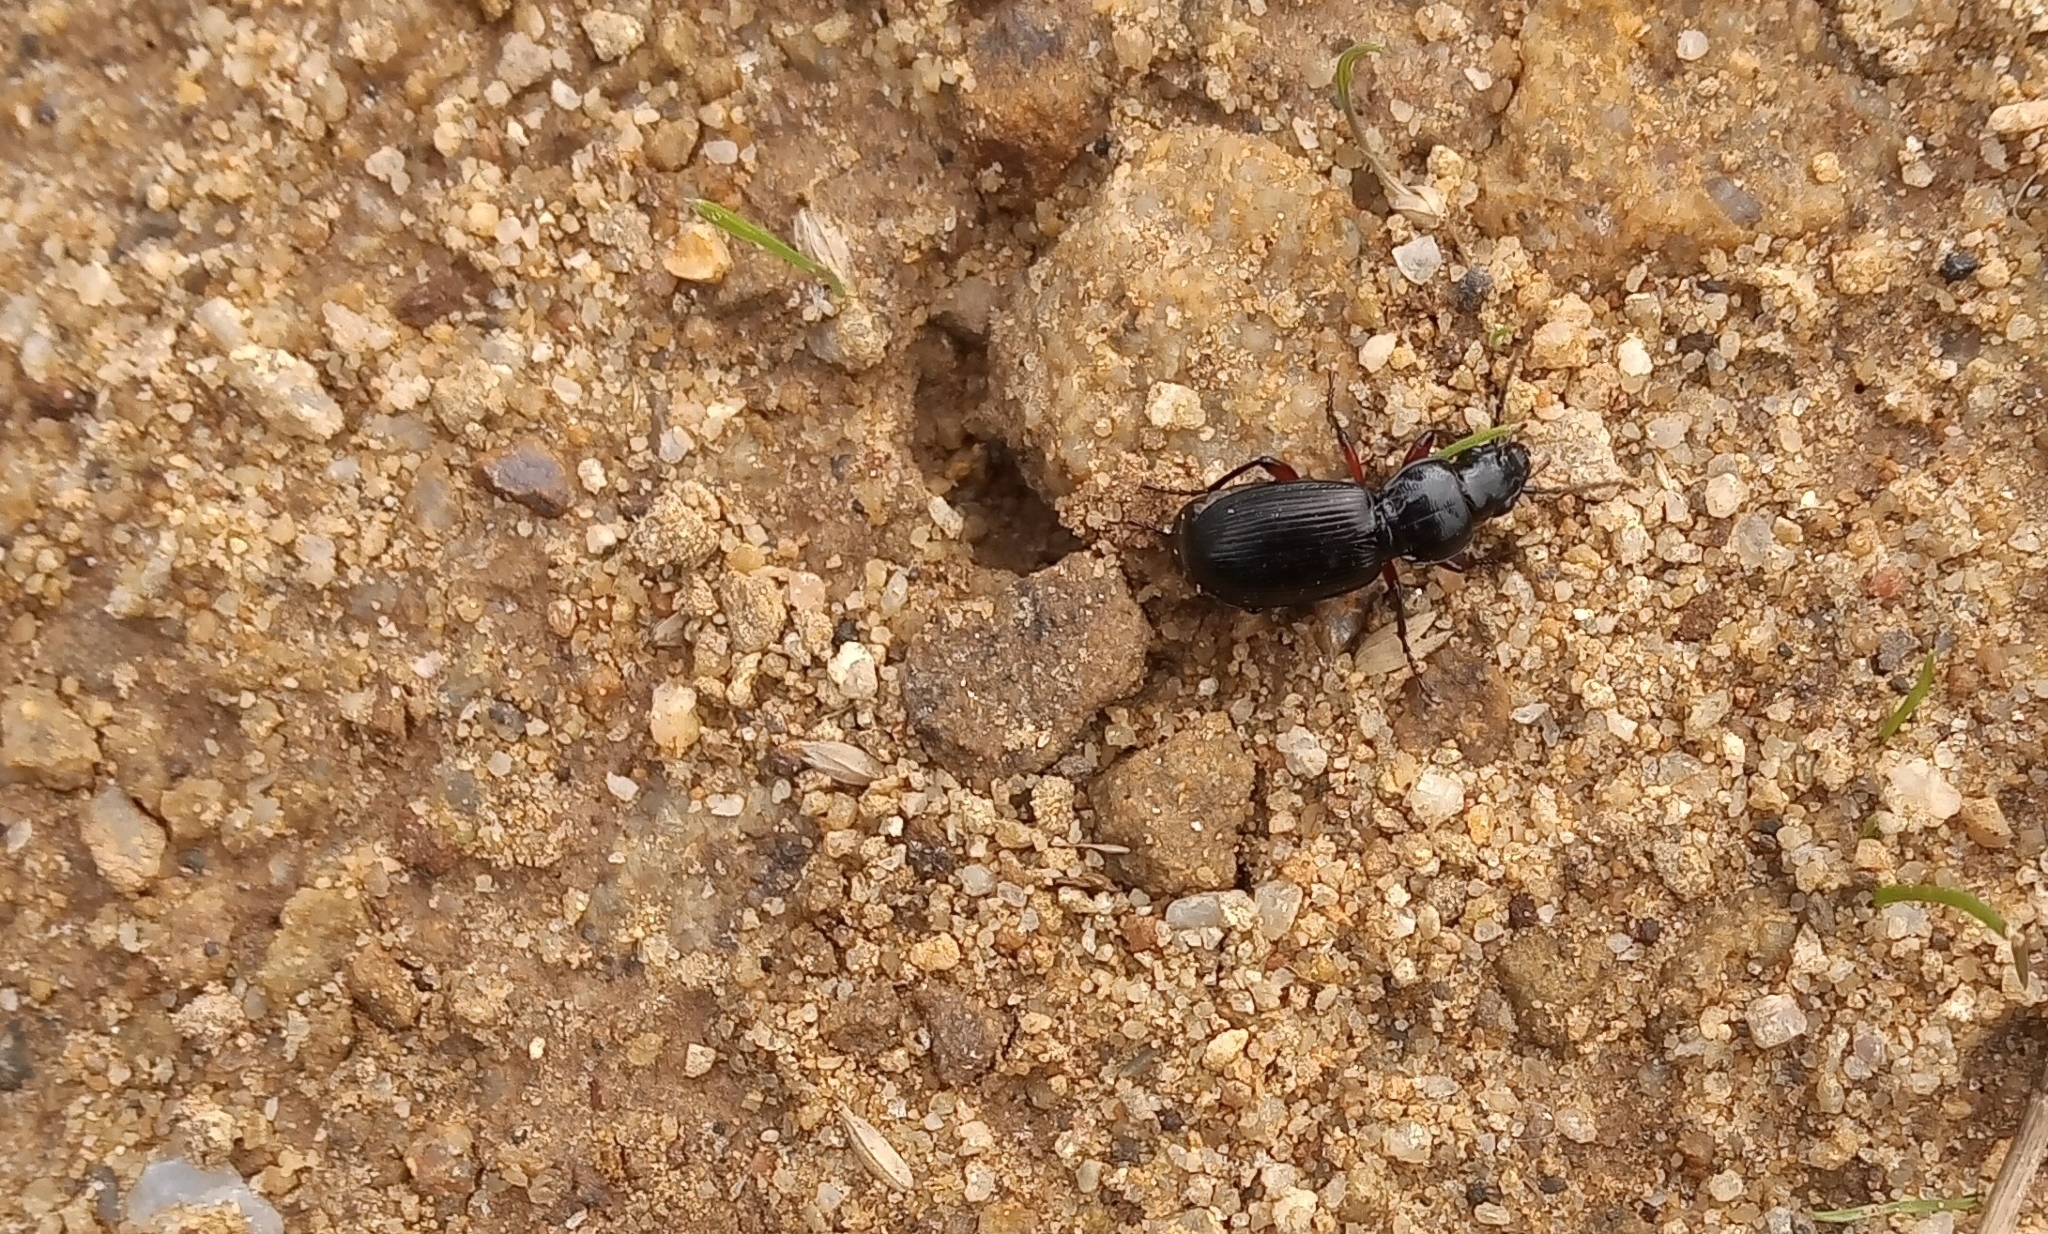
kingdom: Animalia
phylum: Arthropoda
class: Insecta
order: Coleoptera
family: Carabidae
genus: Pterostichus
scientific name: Pterostichus madidus
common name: Black clock
